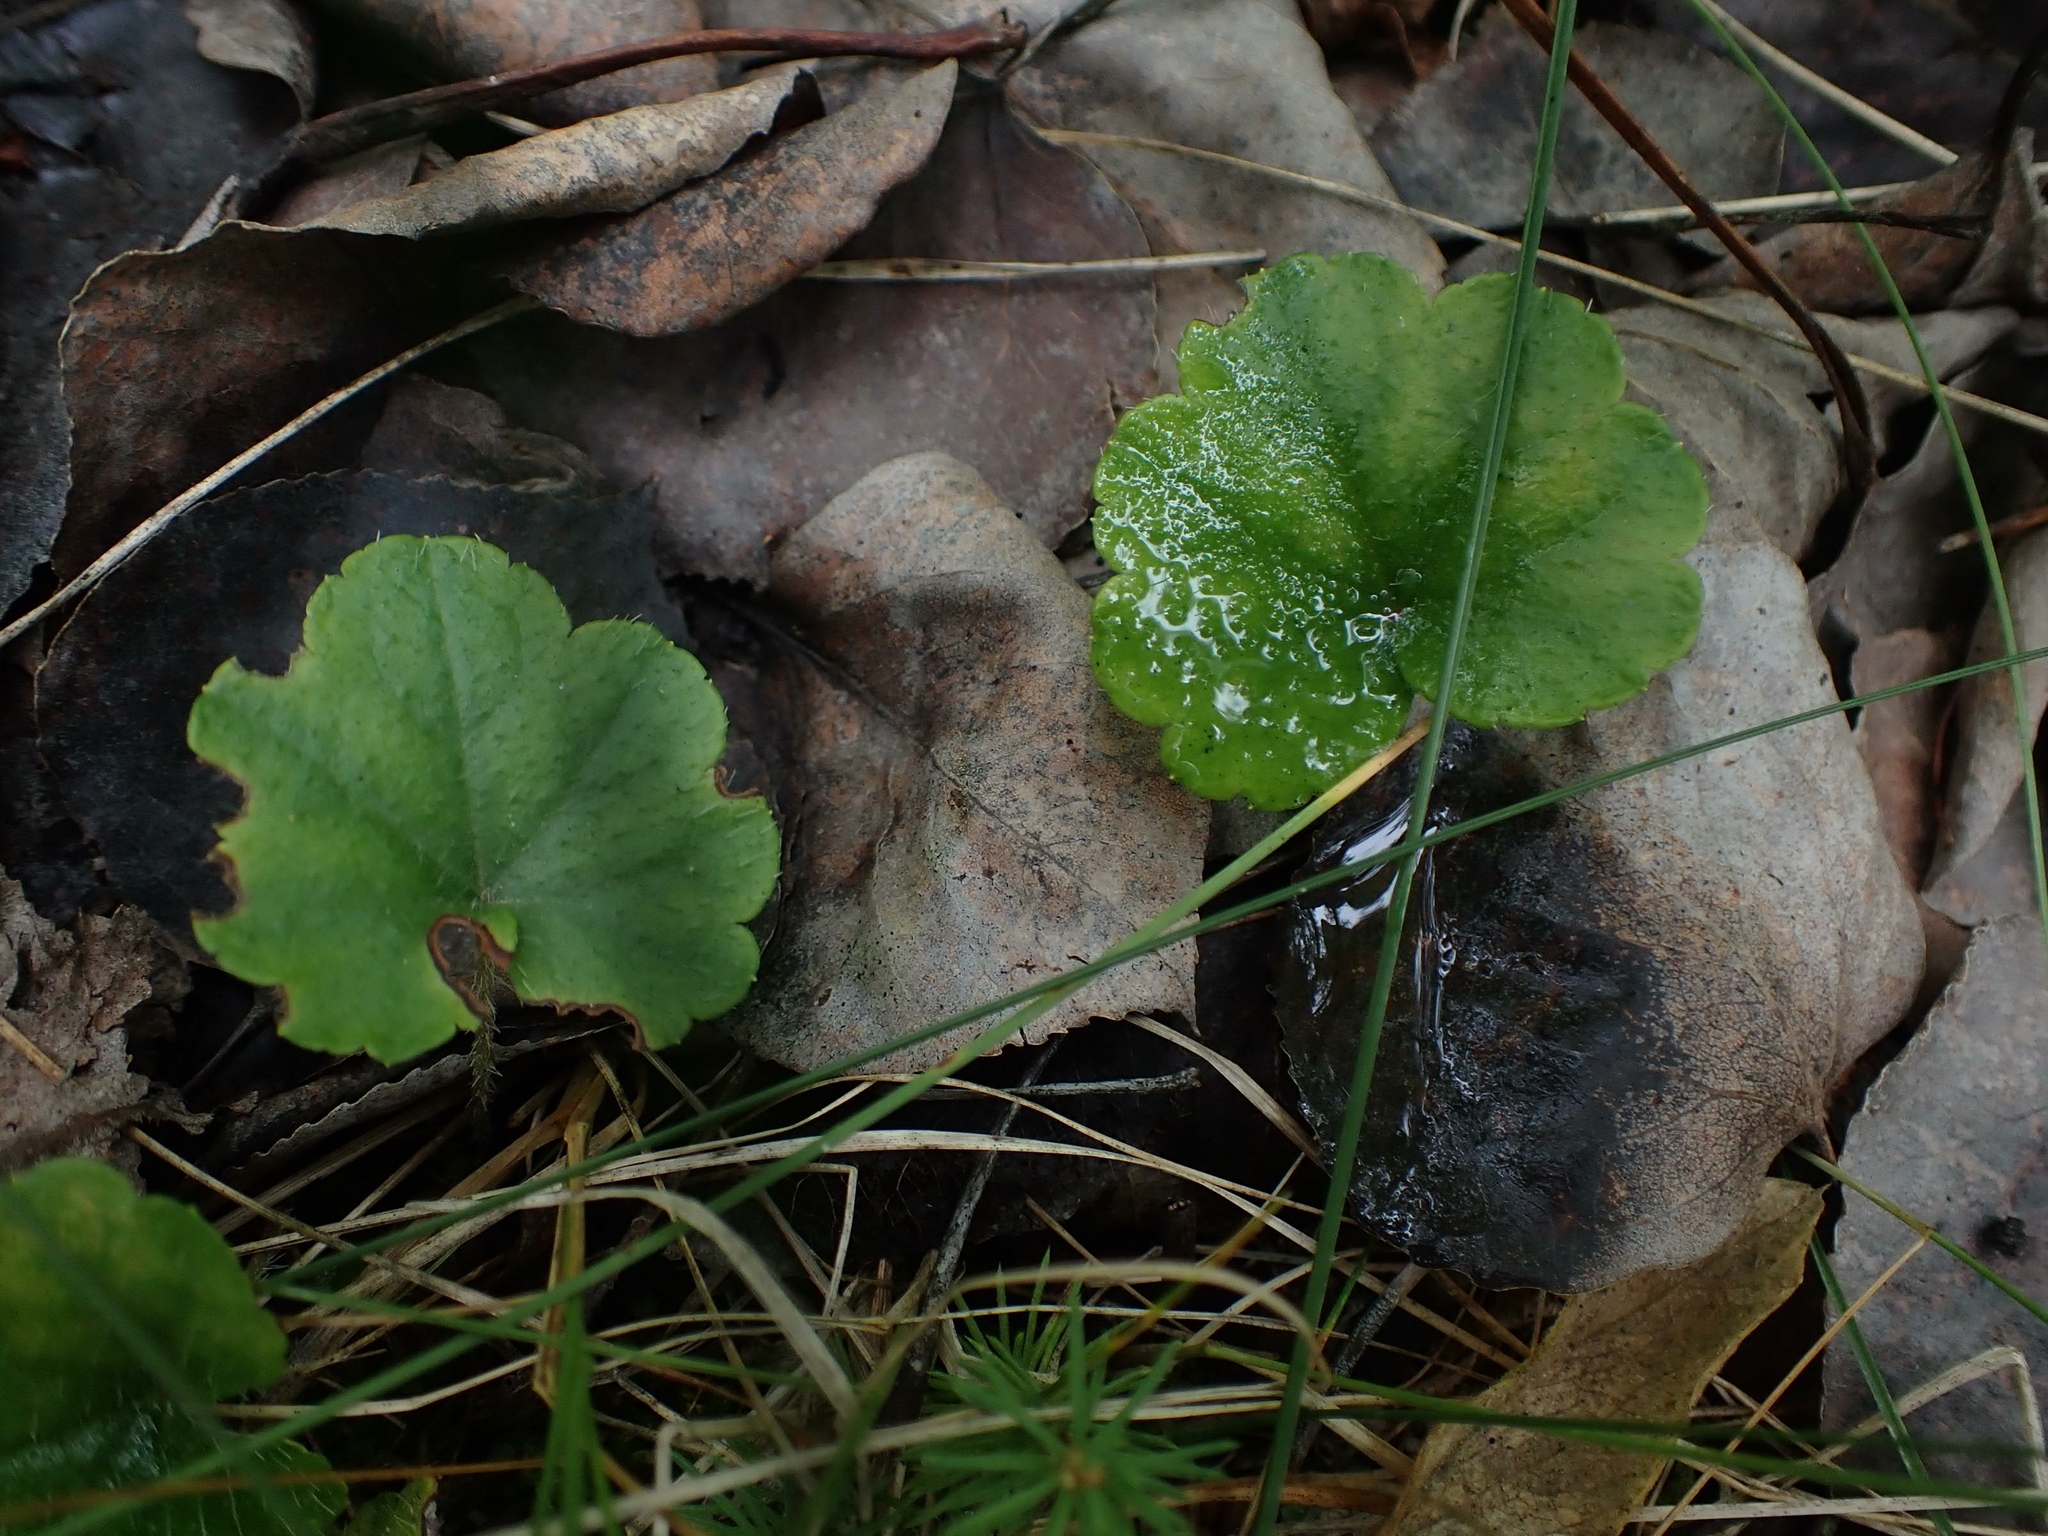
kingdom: Plantae
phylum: Tracheophyta
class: Magnoliopsida
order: Saxifragales
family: Saxifragaceae
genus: Mitella
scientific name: Mitella nuda
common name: Bare-stemmed bishop's-cap
